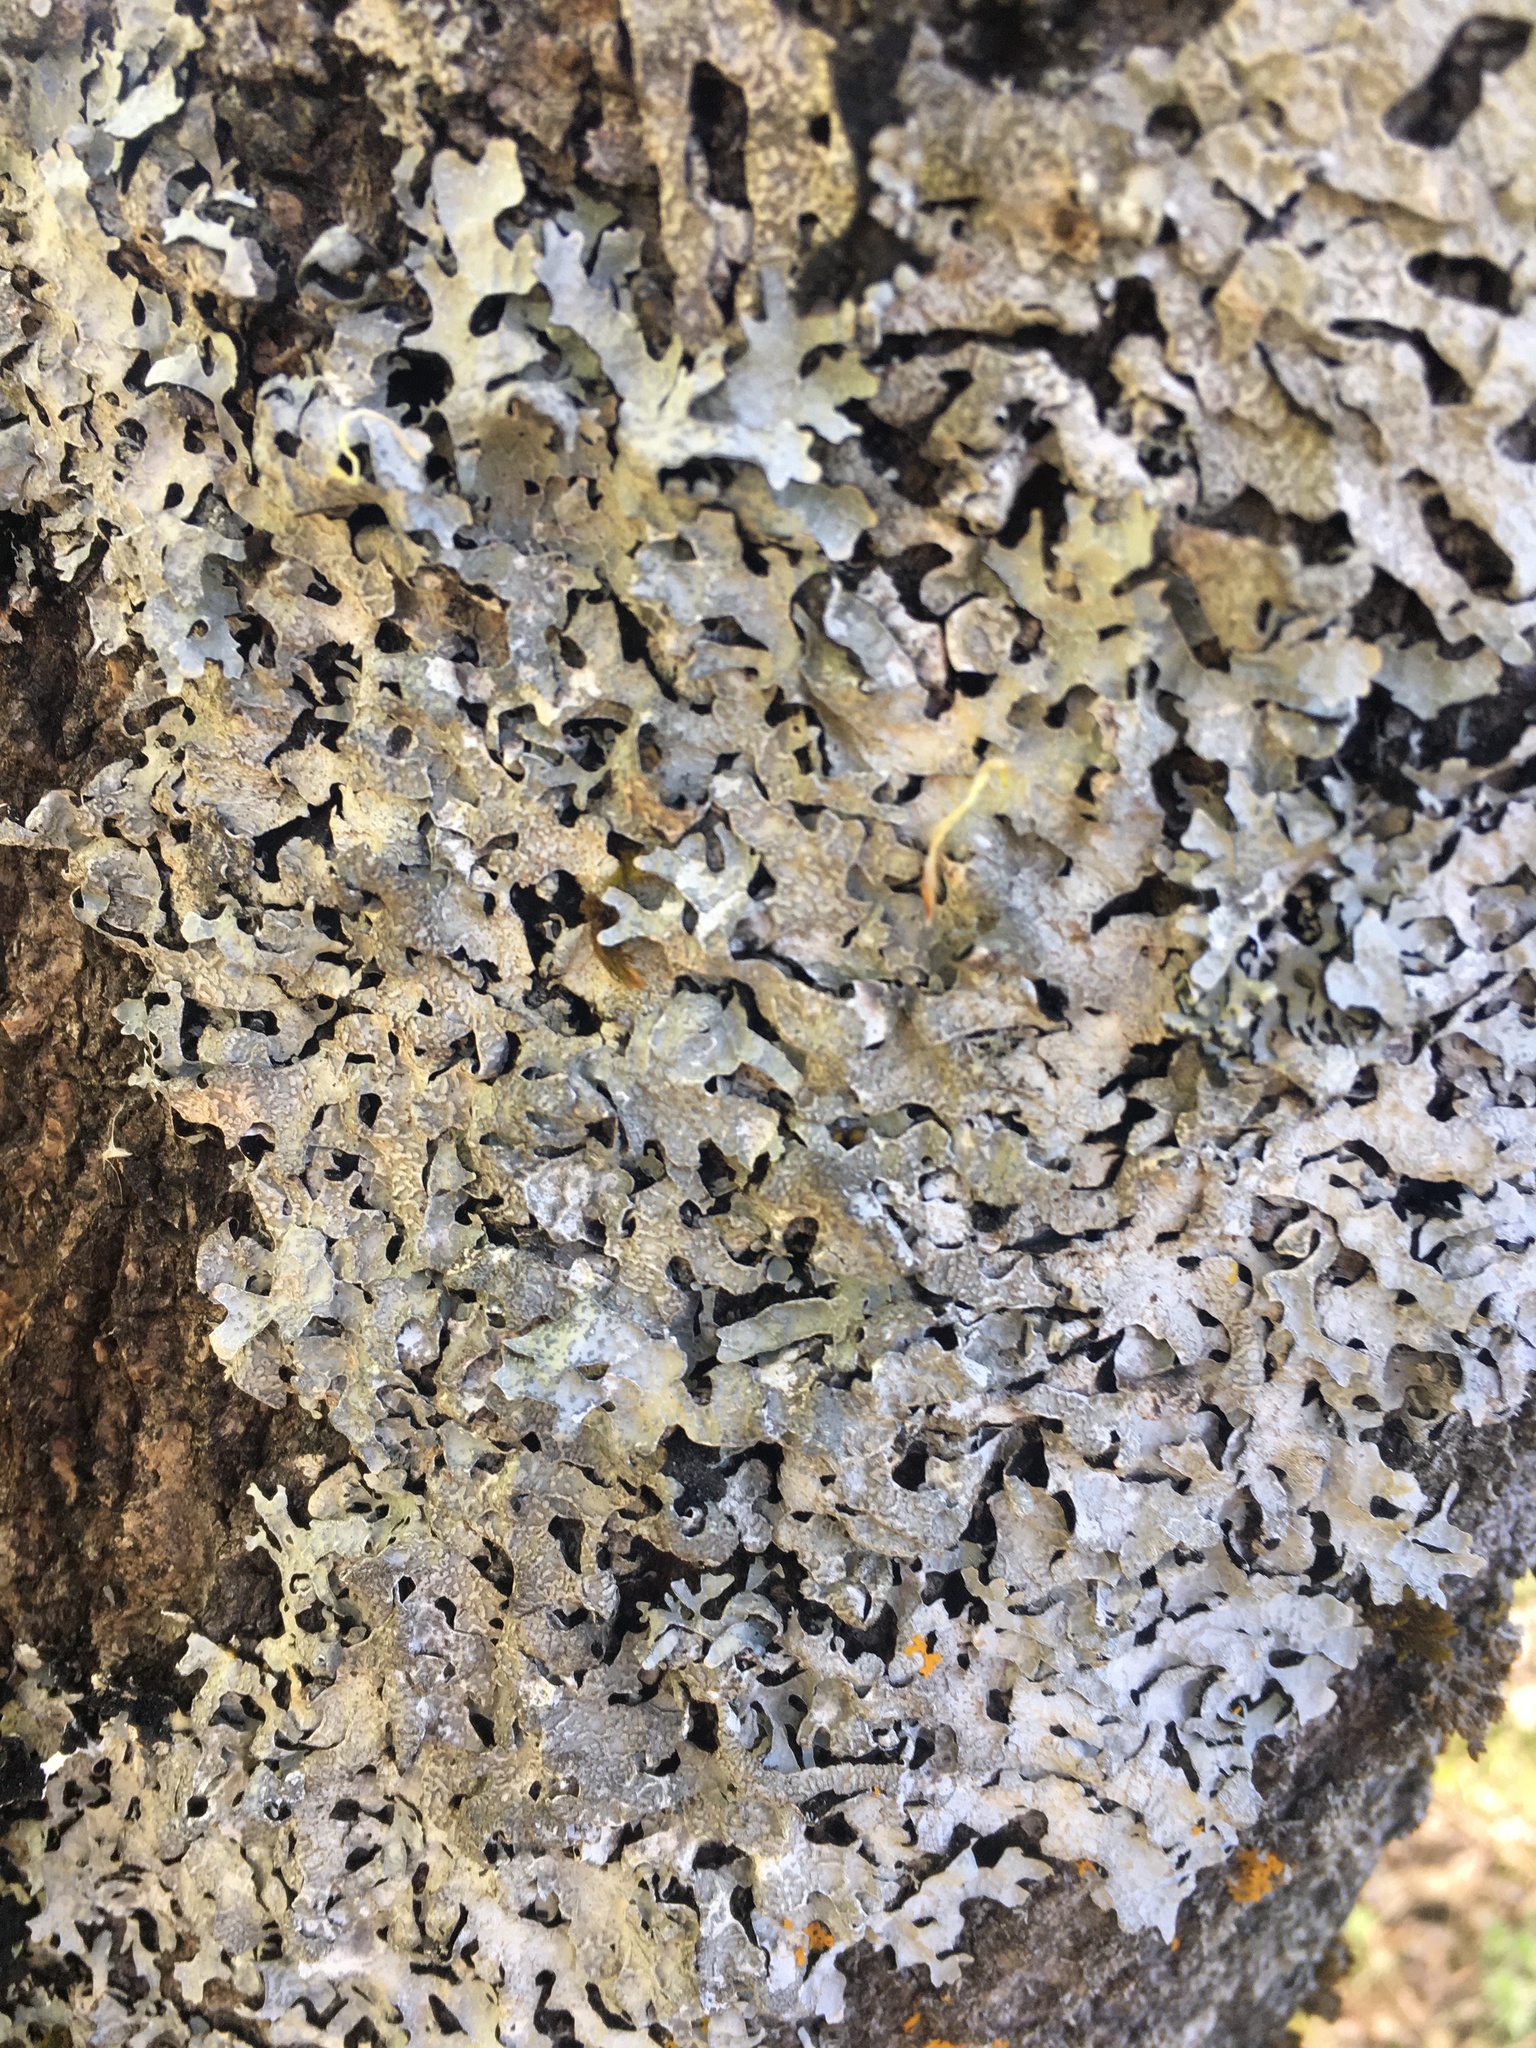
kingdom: Fungi
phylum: Ascomycota
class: Lecanoromycetes
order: Lecanorales
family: Parmeliaceae
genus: Parmelia
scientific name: Parmelia sulcata
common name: Netted shield lichen
